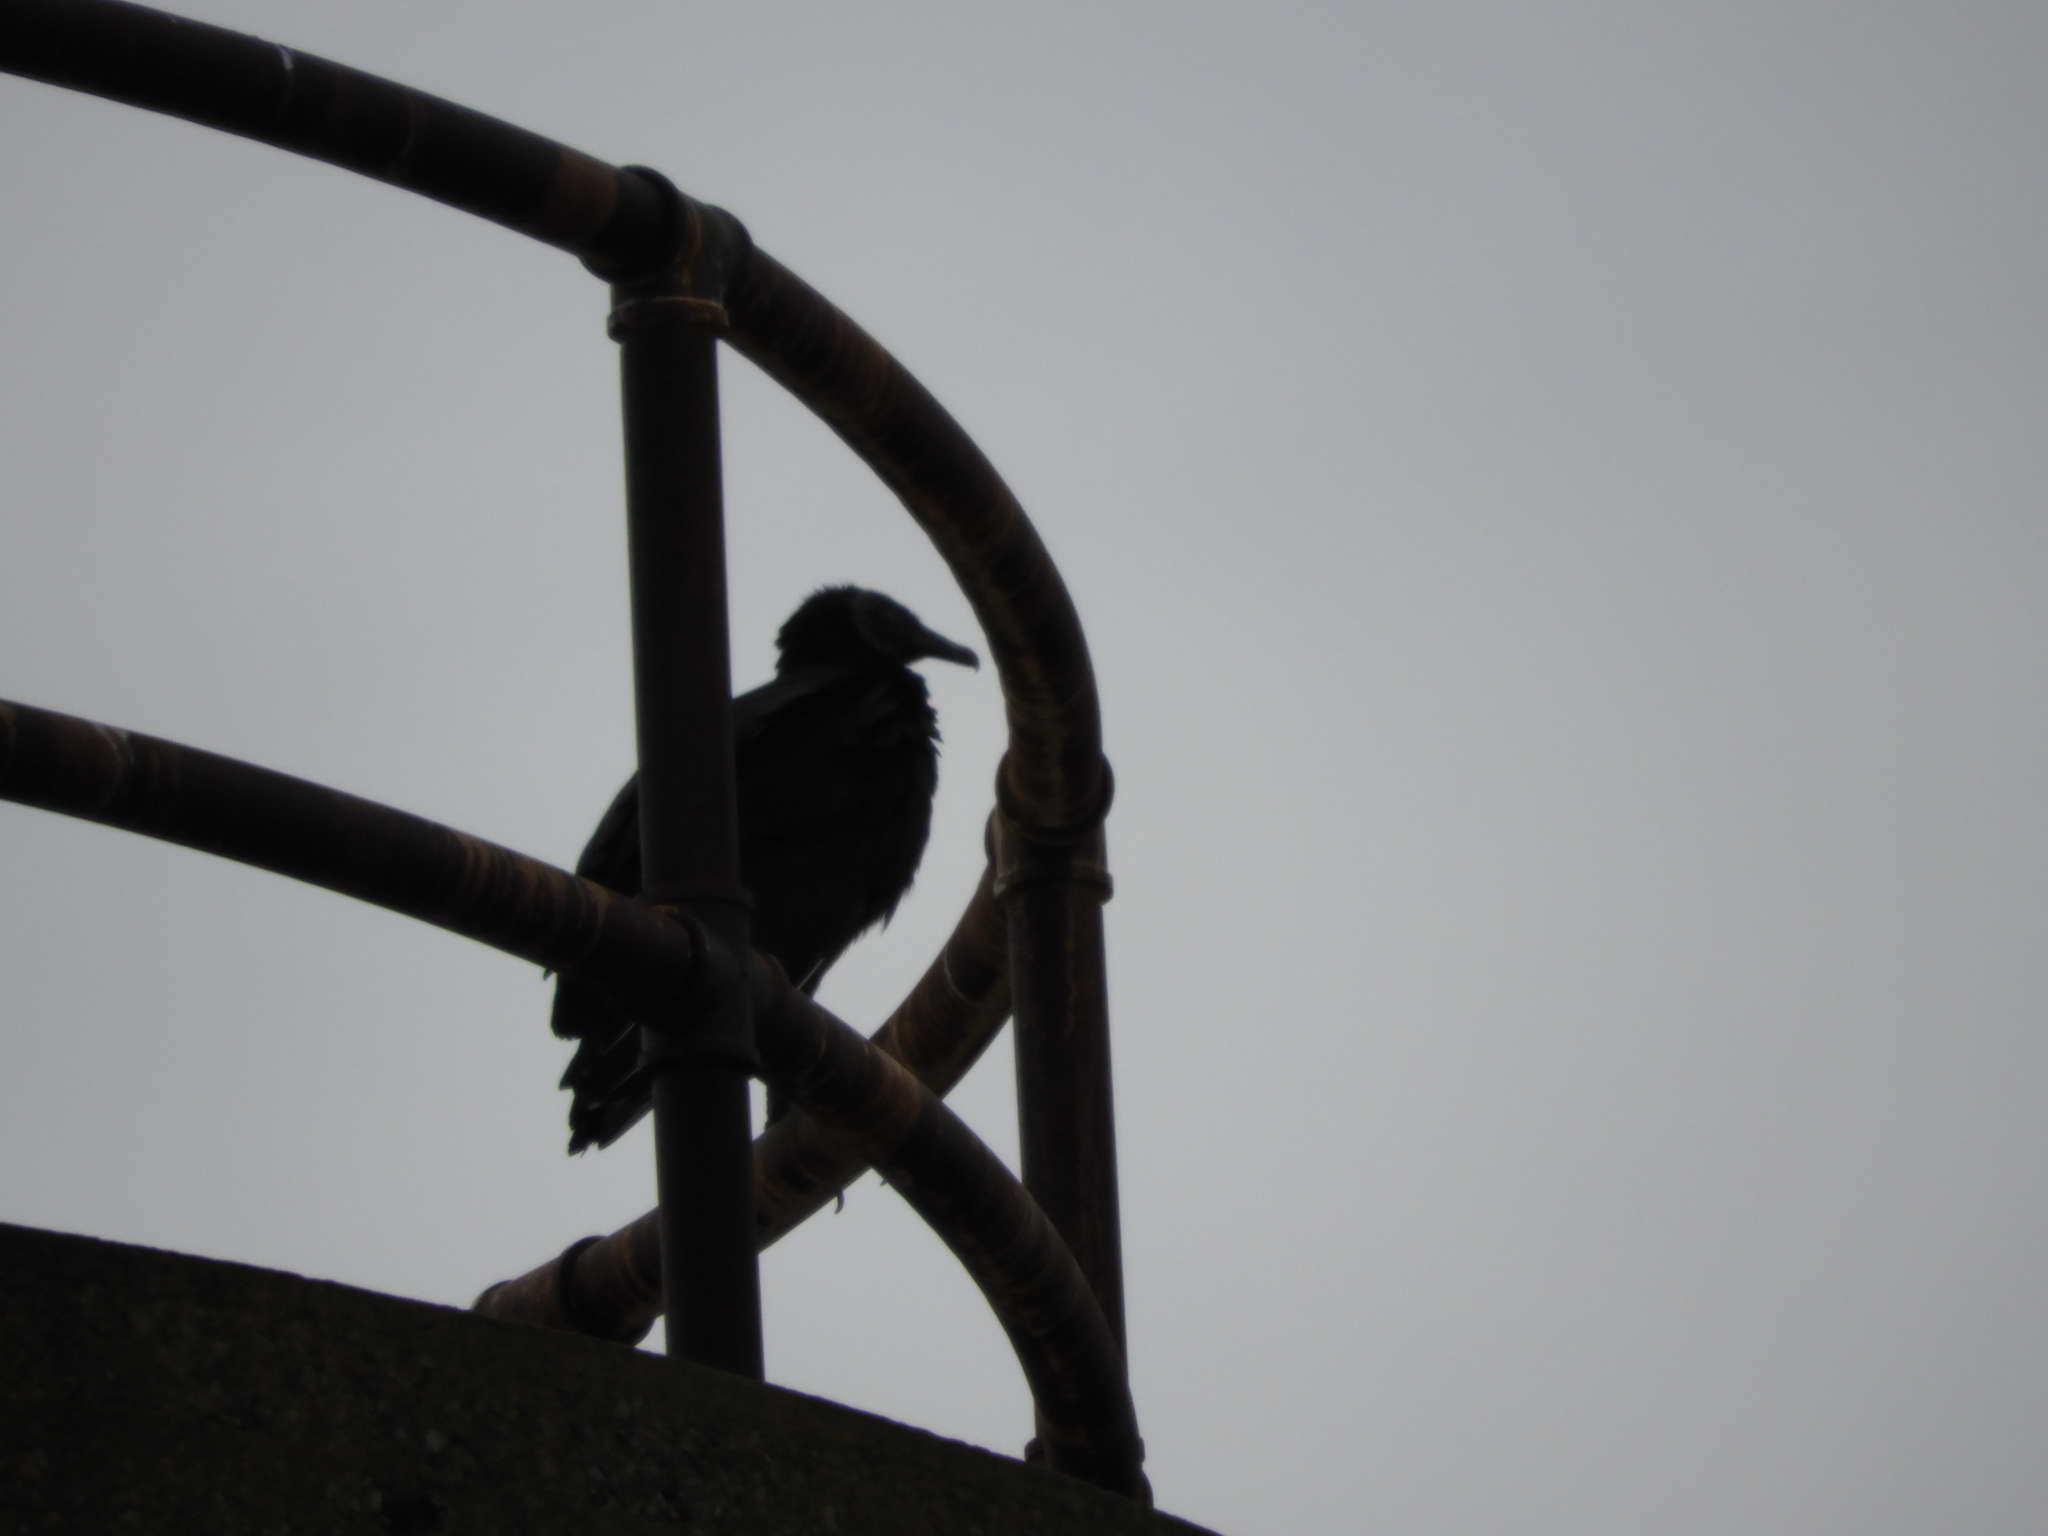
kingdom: Animalia
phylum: Chordata
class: Aves
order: Accipitriformes
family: Cathartidae
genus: Coragyps
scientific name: Coragyps atratus
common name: Black vulture
